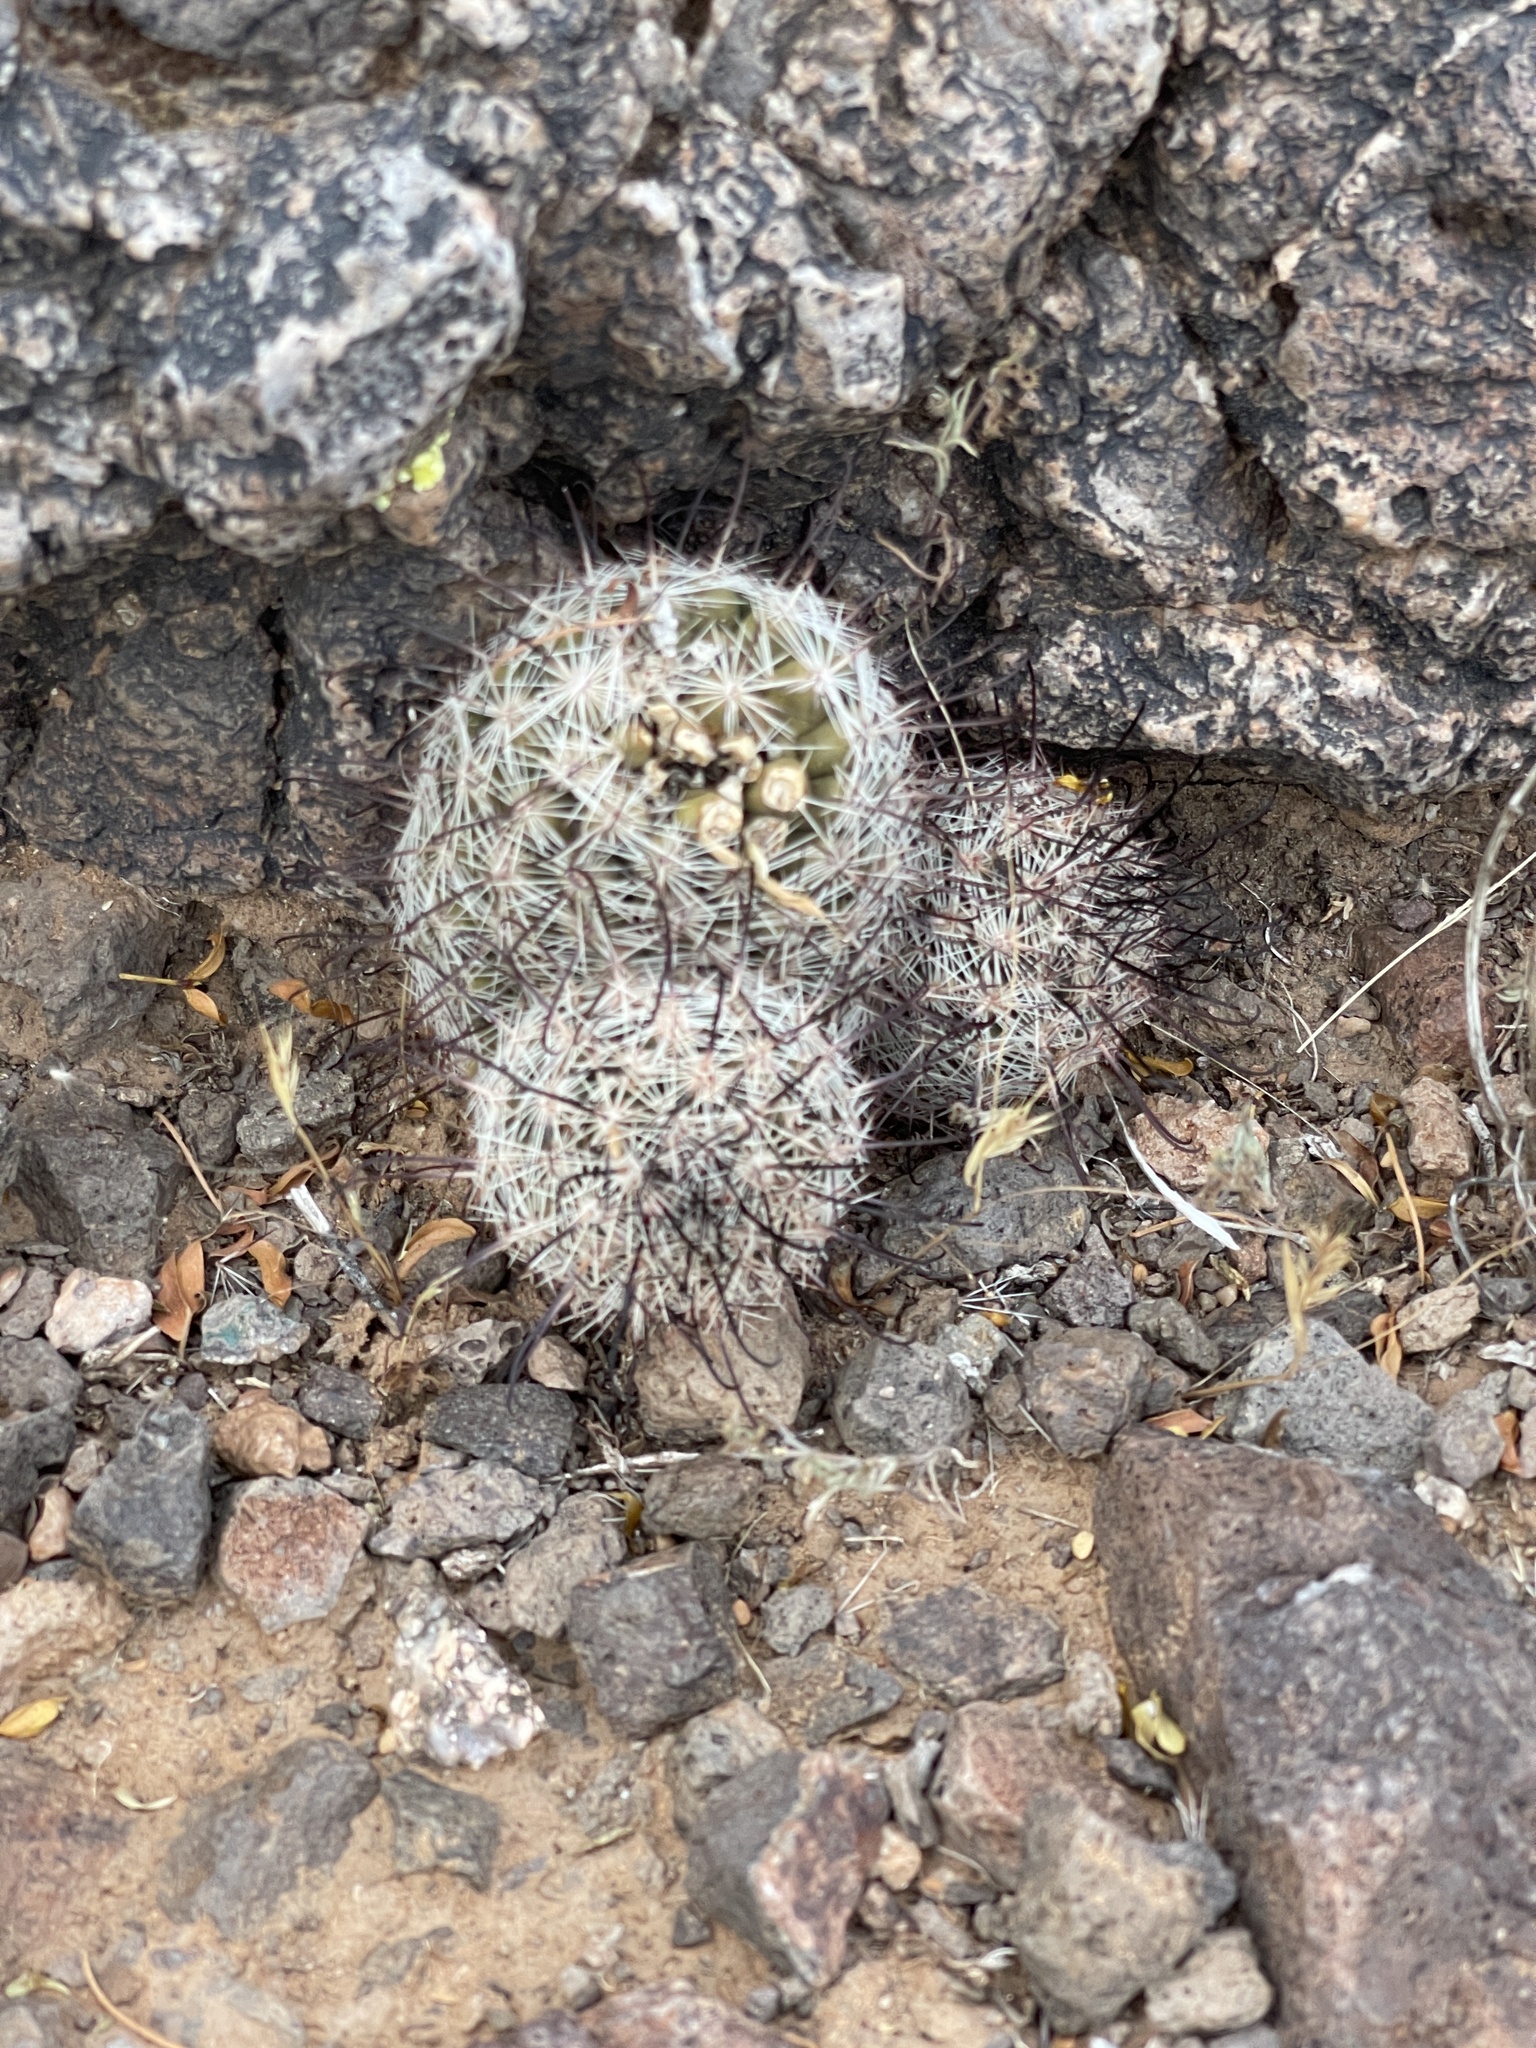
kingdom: Plantae
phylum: Tracheophyta
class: Magnoliopsida
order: Caryophyllales
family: Cactaceae
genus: Cochemiea
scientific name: Cochemiea grahamii
